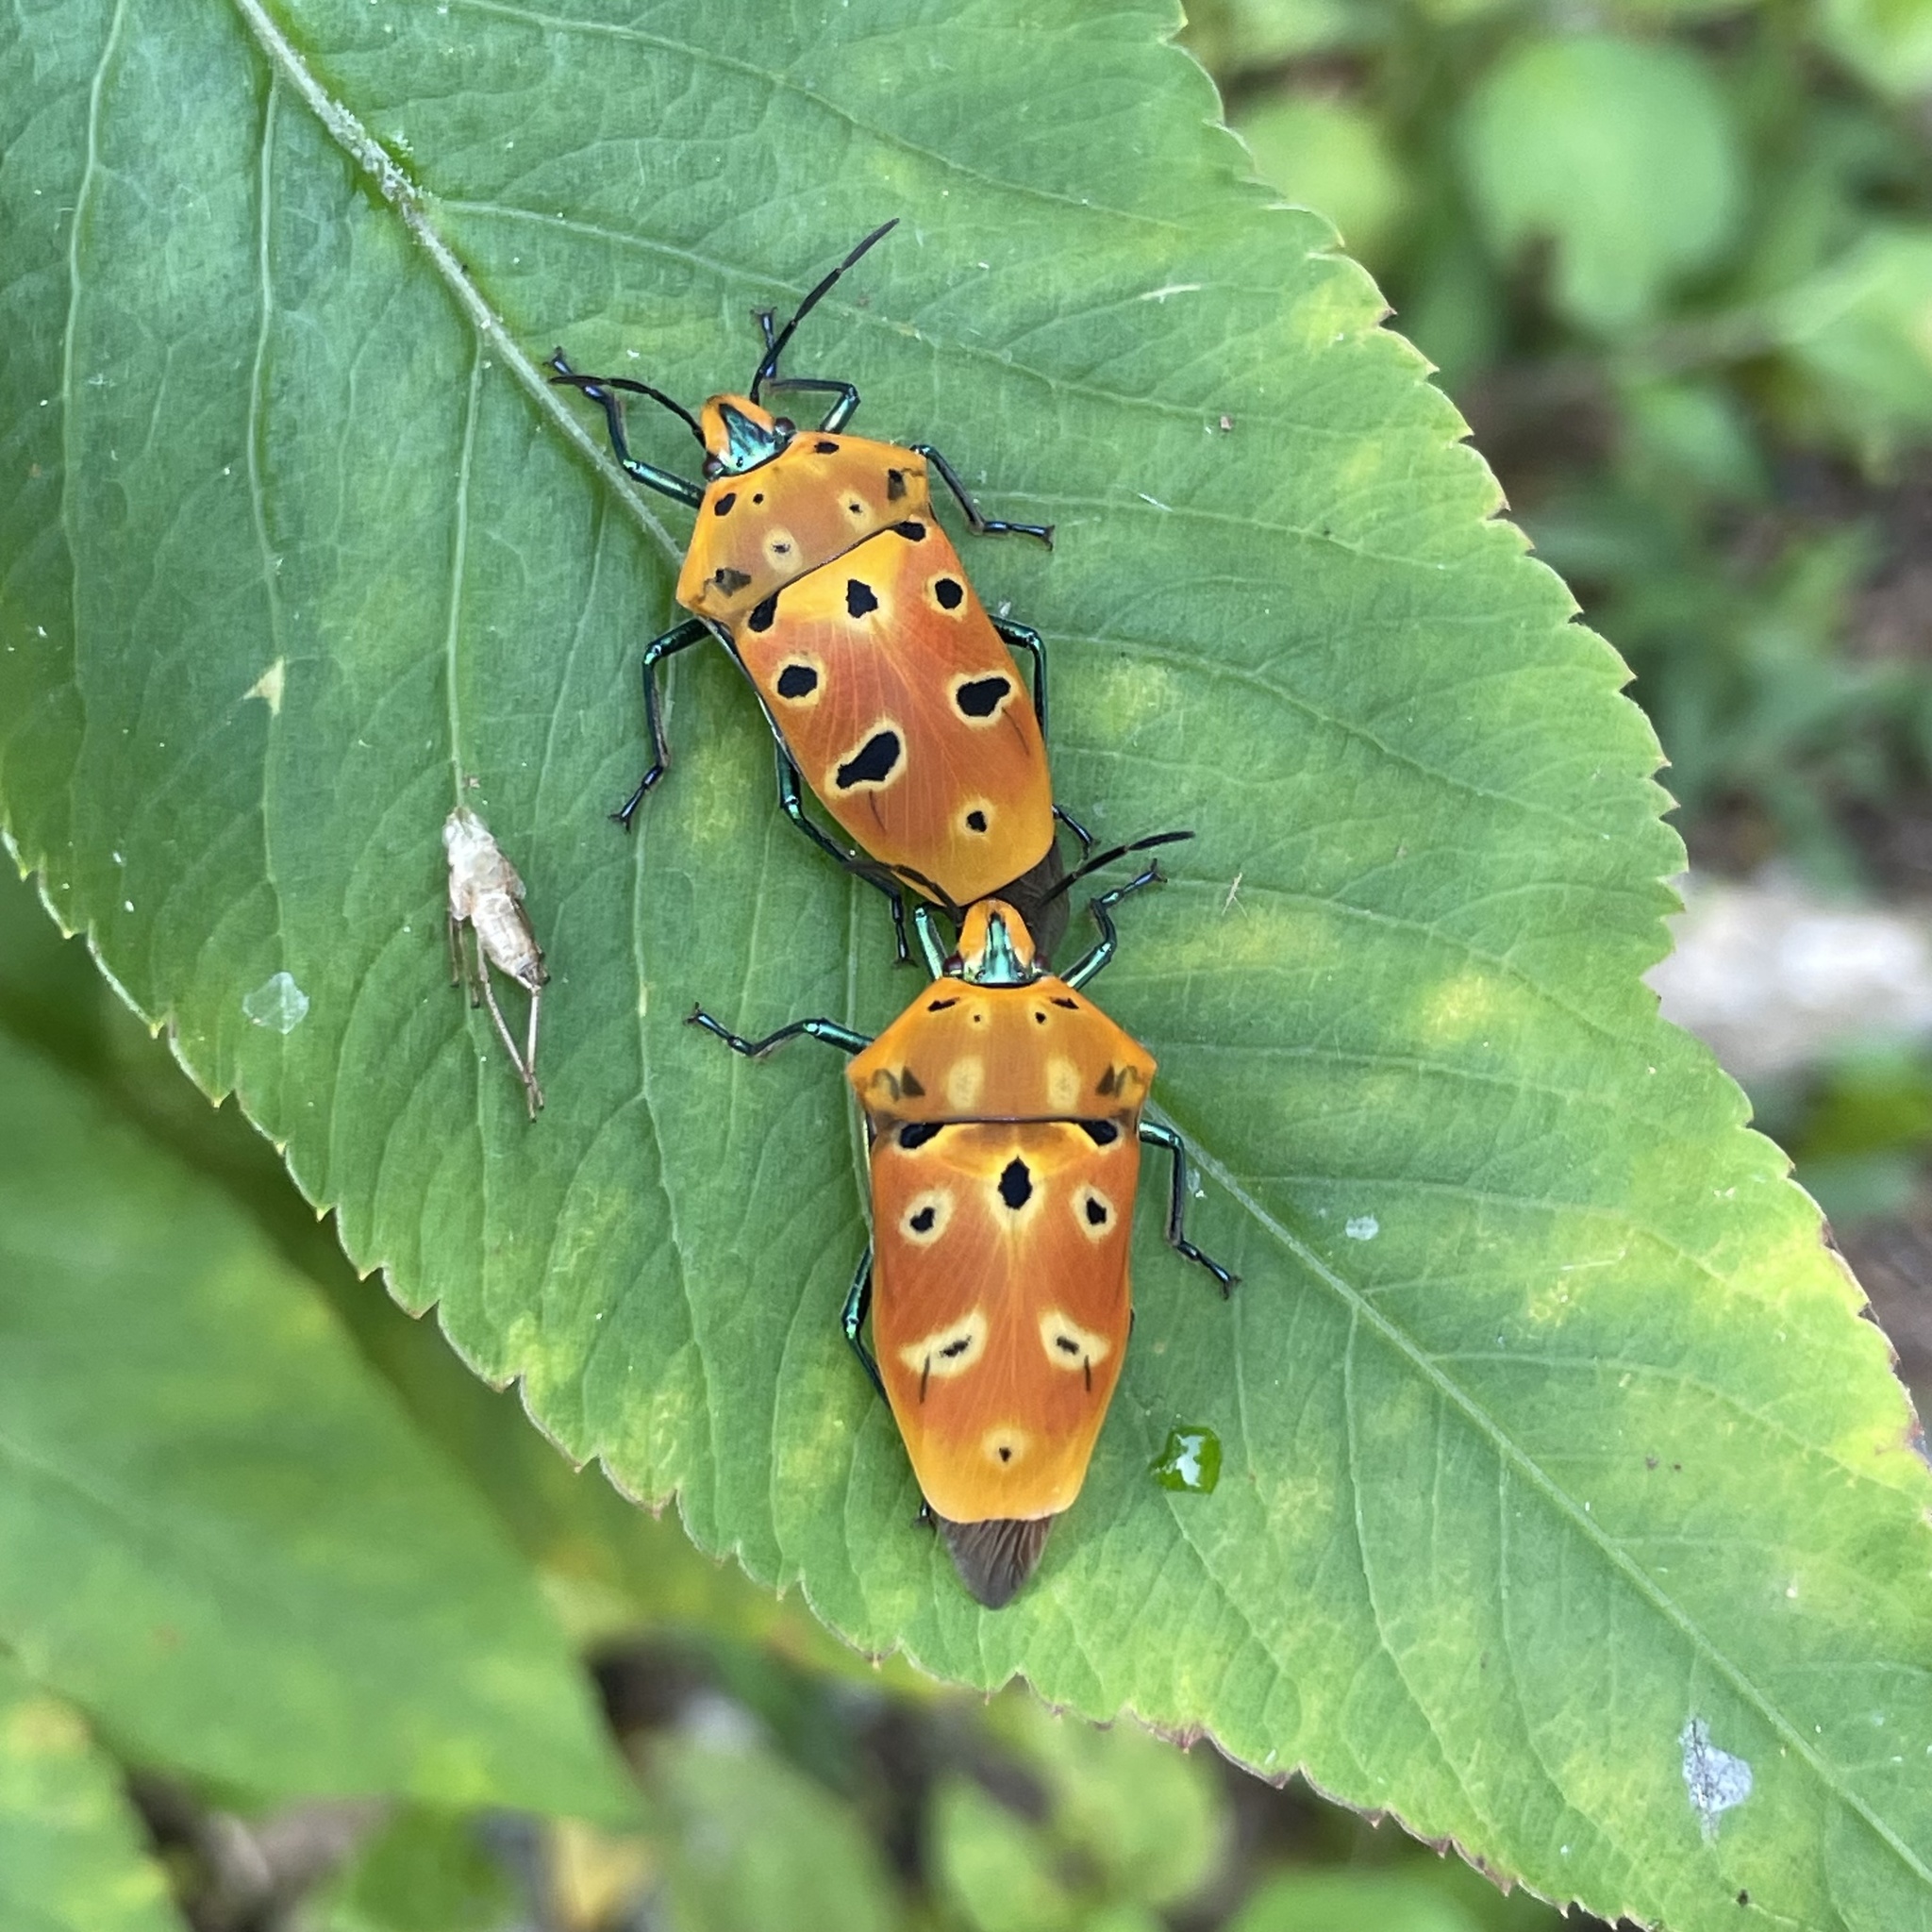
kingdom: Animalia
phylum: Arthropoda
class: Insecta
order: Hemiptera
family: Scutelleridae
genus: Cantao
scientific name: Cantao ocellatus
